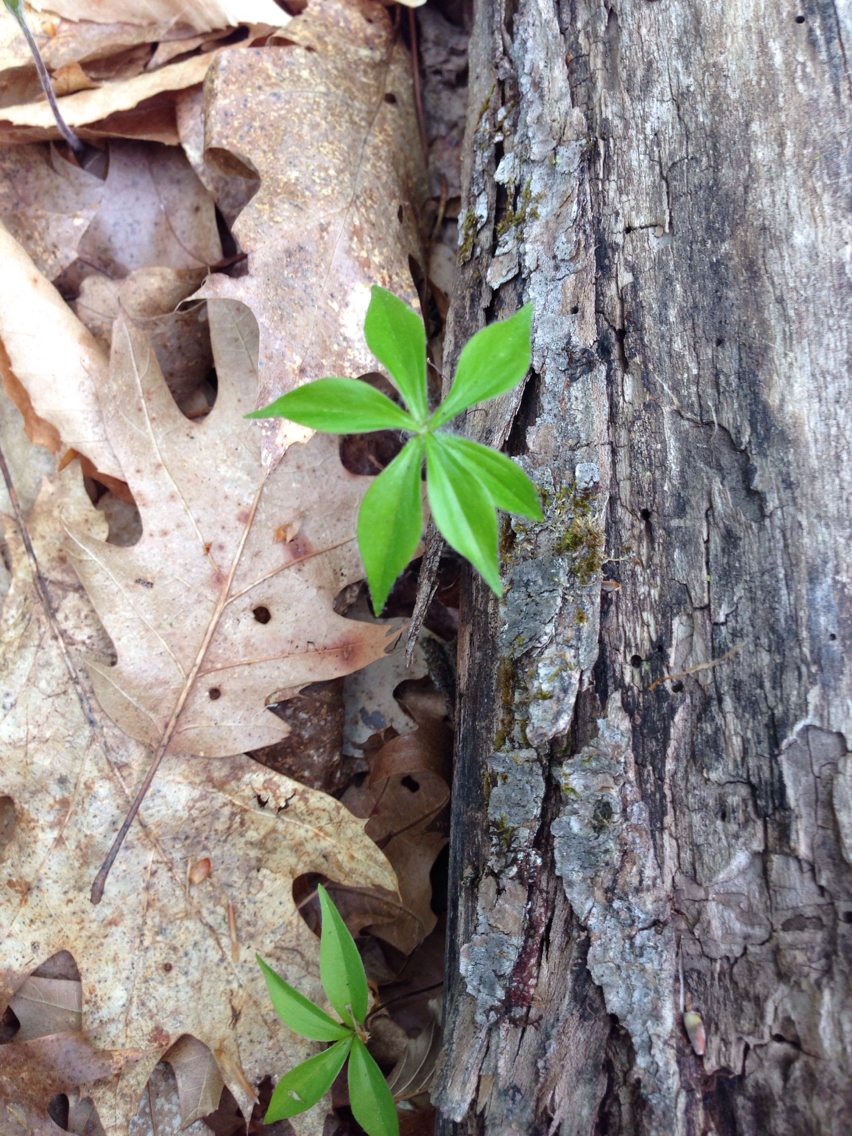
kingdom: Plantae
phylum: Tracheophyta
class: Liliopsida
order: Liliales
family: Liliaceae
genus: Medeola
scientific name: Medeola virginiana
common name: Indian cucumber-root
